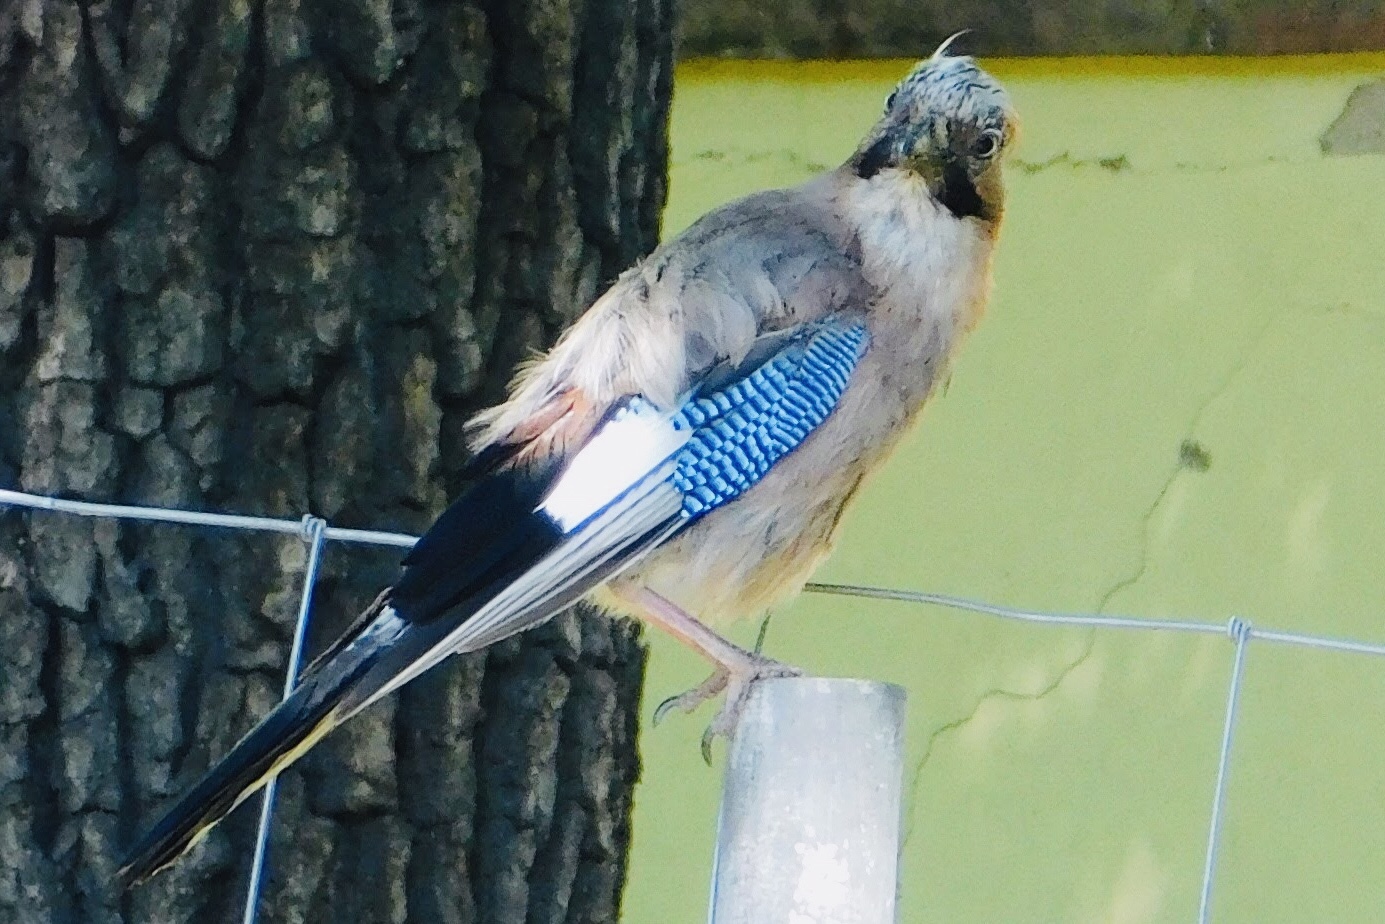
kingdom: Animalia
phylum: Chordata
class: Aves
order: Passeriformes
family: Corvidae
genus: Garrulus
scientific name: Garrulus glandarius
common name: Eurasian jay
